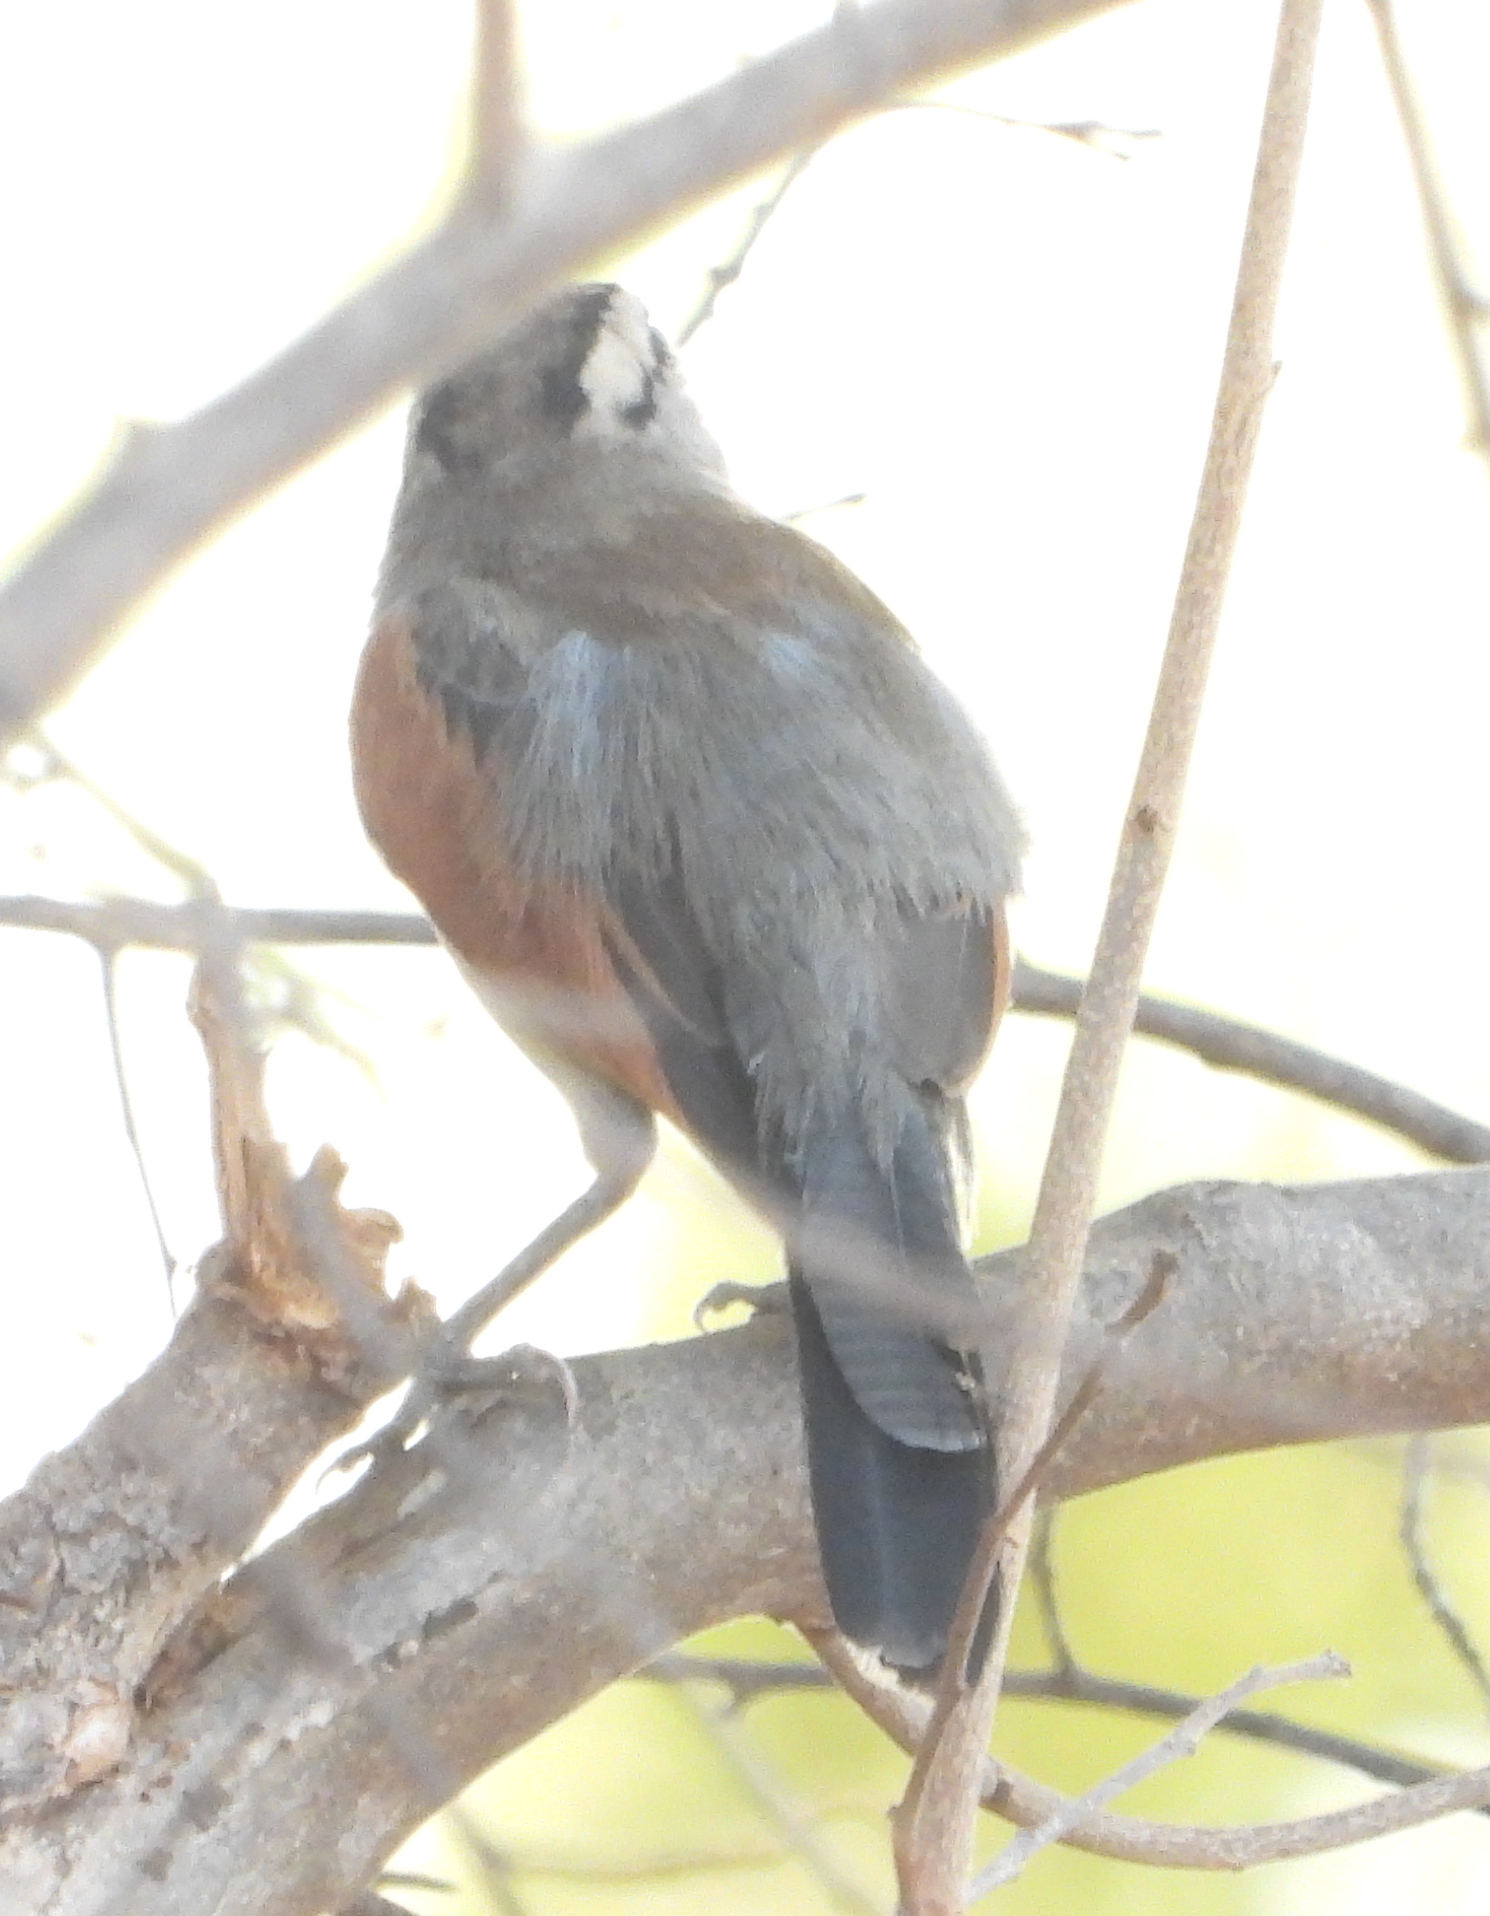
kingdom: Animalia
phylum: Chordata
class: Aves
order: Passeriformes
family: Malaconotidae
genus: Tchagra
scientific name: Tchagra australis
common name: Brown-crowned tchagra
